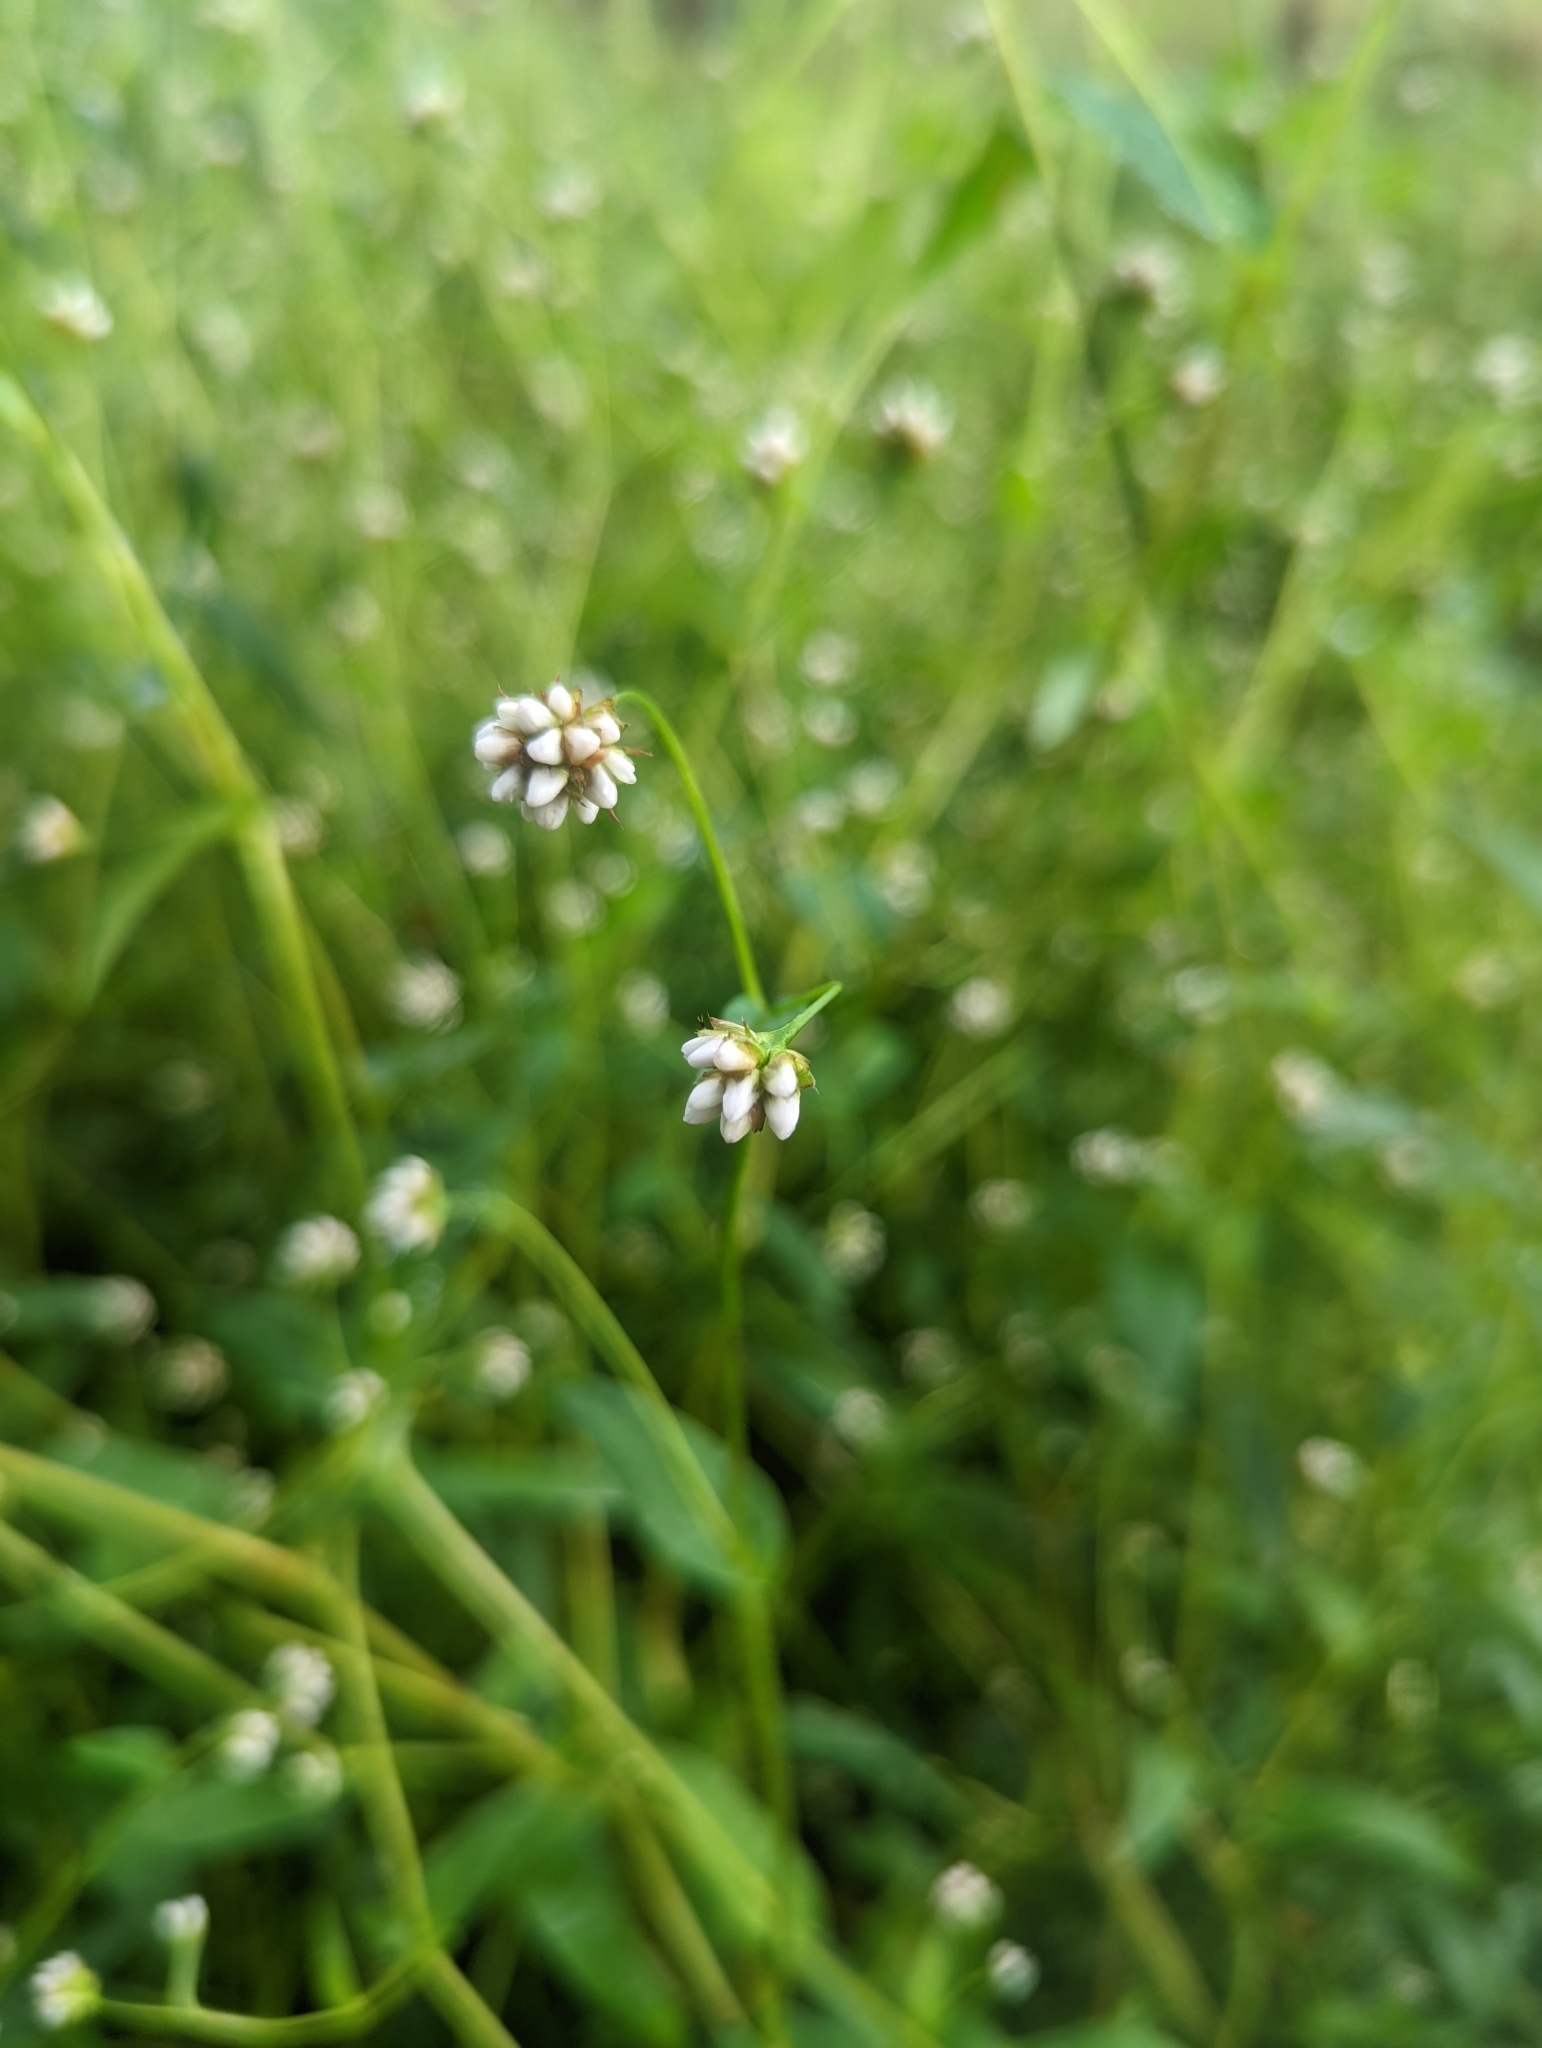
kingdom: Plantae
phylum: Tracheophyta
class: Magnoliopsida
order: Caryophyllales
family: Polygonaceae
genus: Persicaria
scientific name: Persicaria sagittata
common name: American tearthumb
